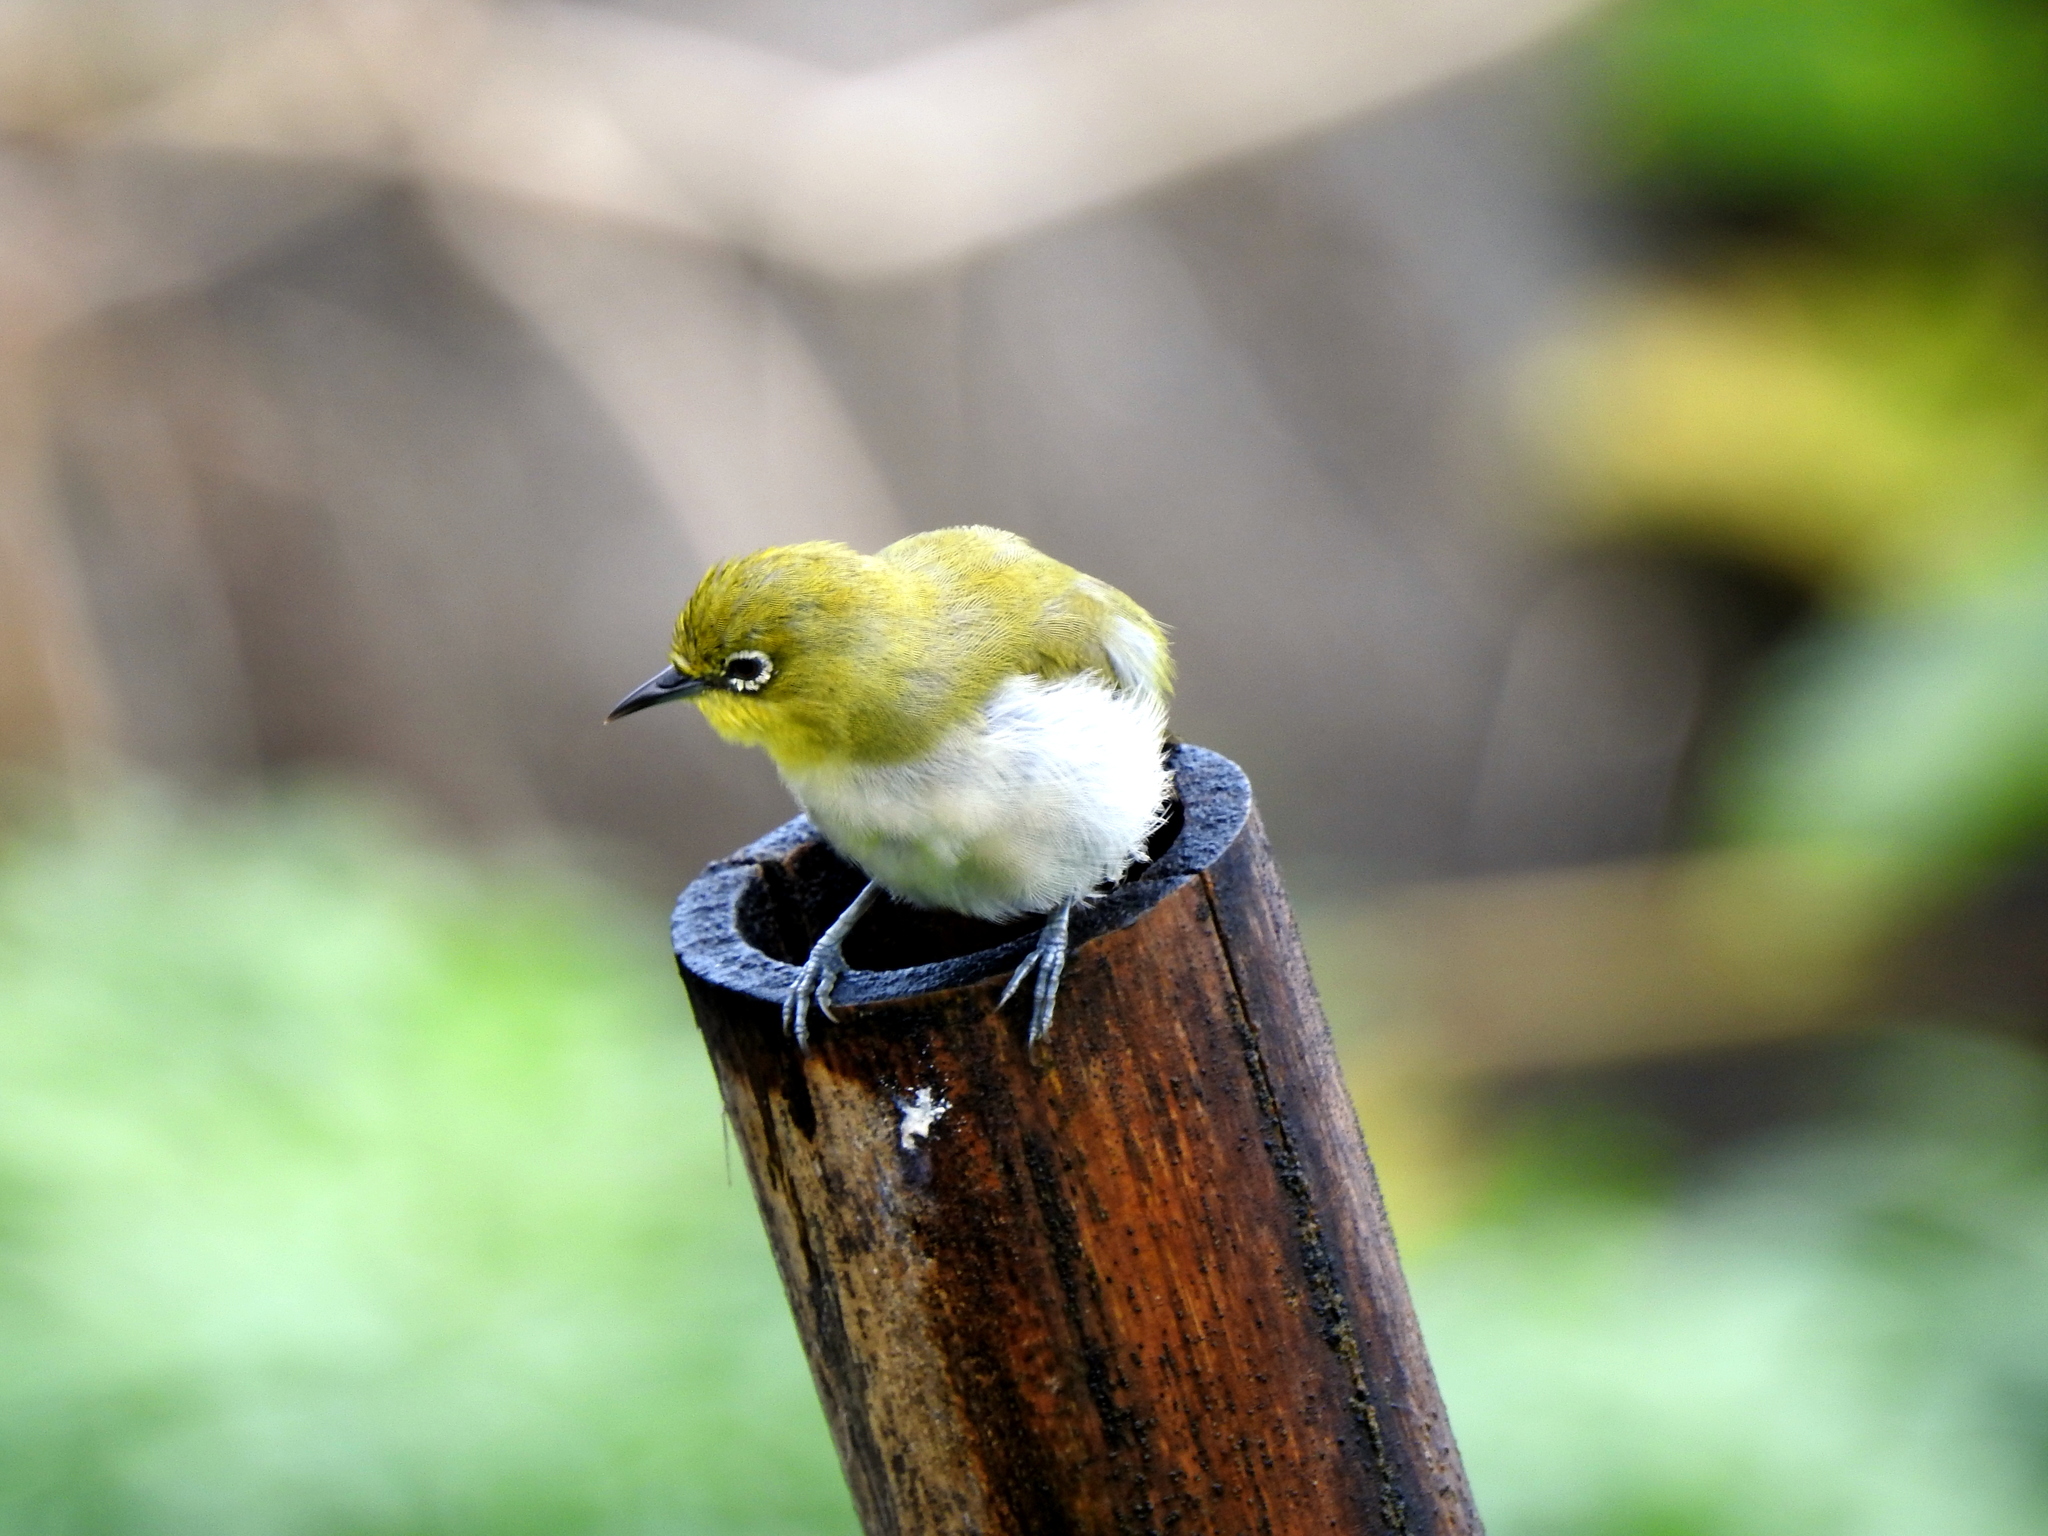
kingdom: Animalia
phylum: Chordata
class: Aves
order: Passeriformes
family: Zosteropidae
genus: Zosterops
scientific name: Zosterops simplex
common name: Swinhoe's white-eye
